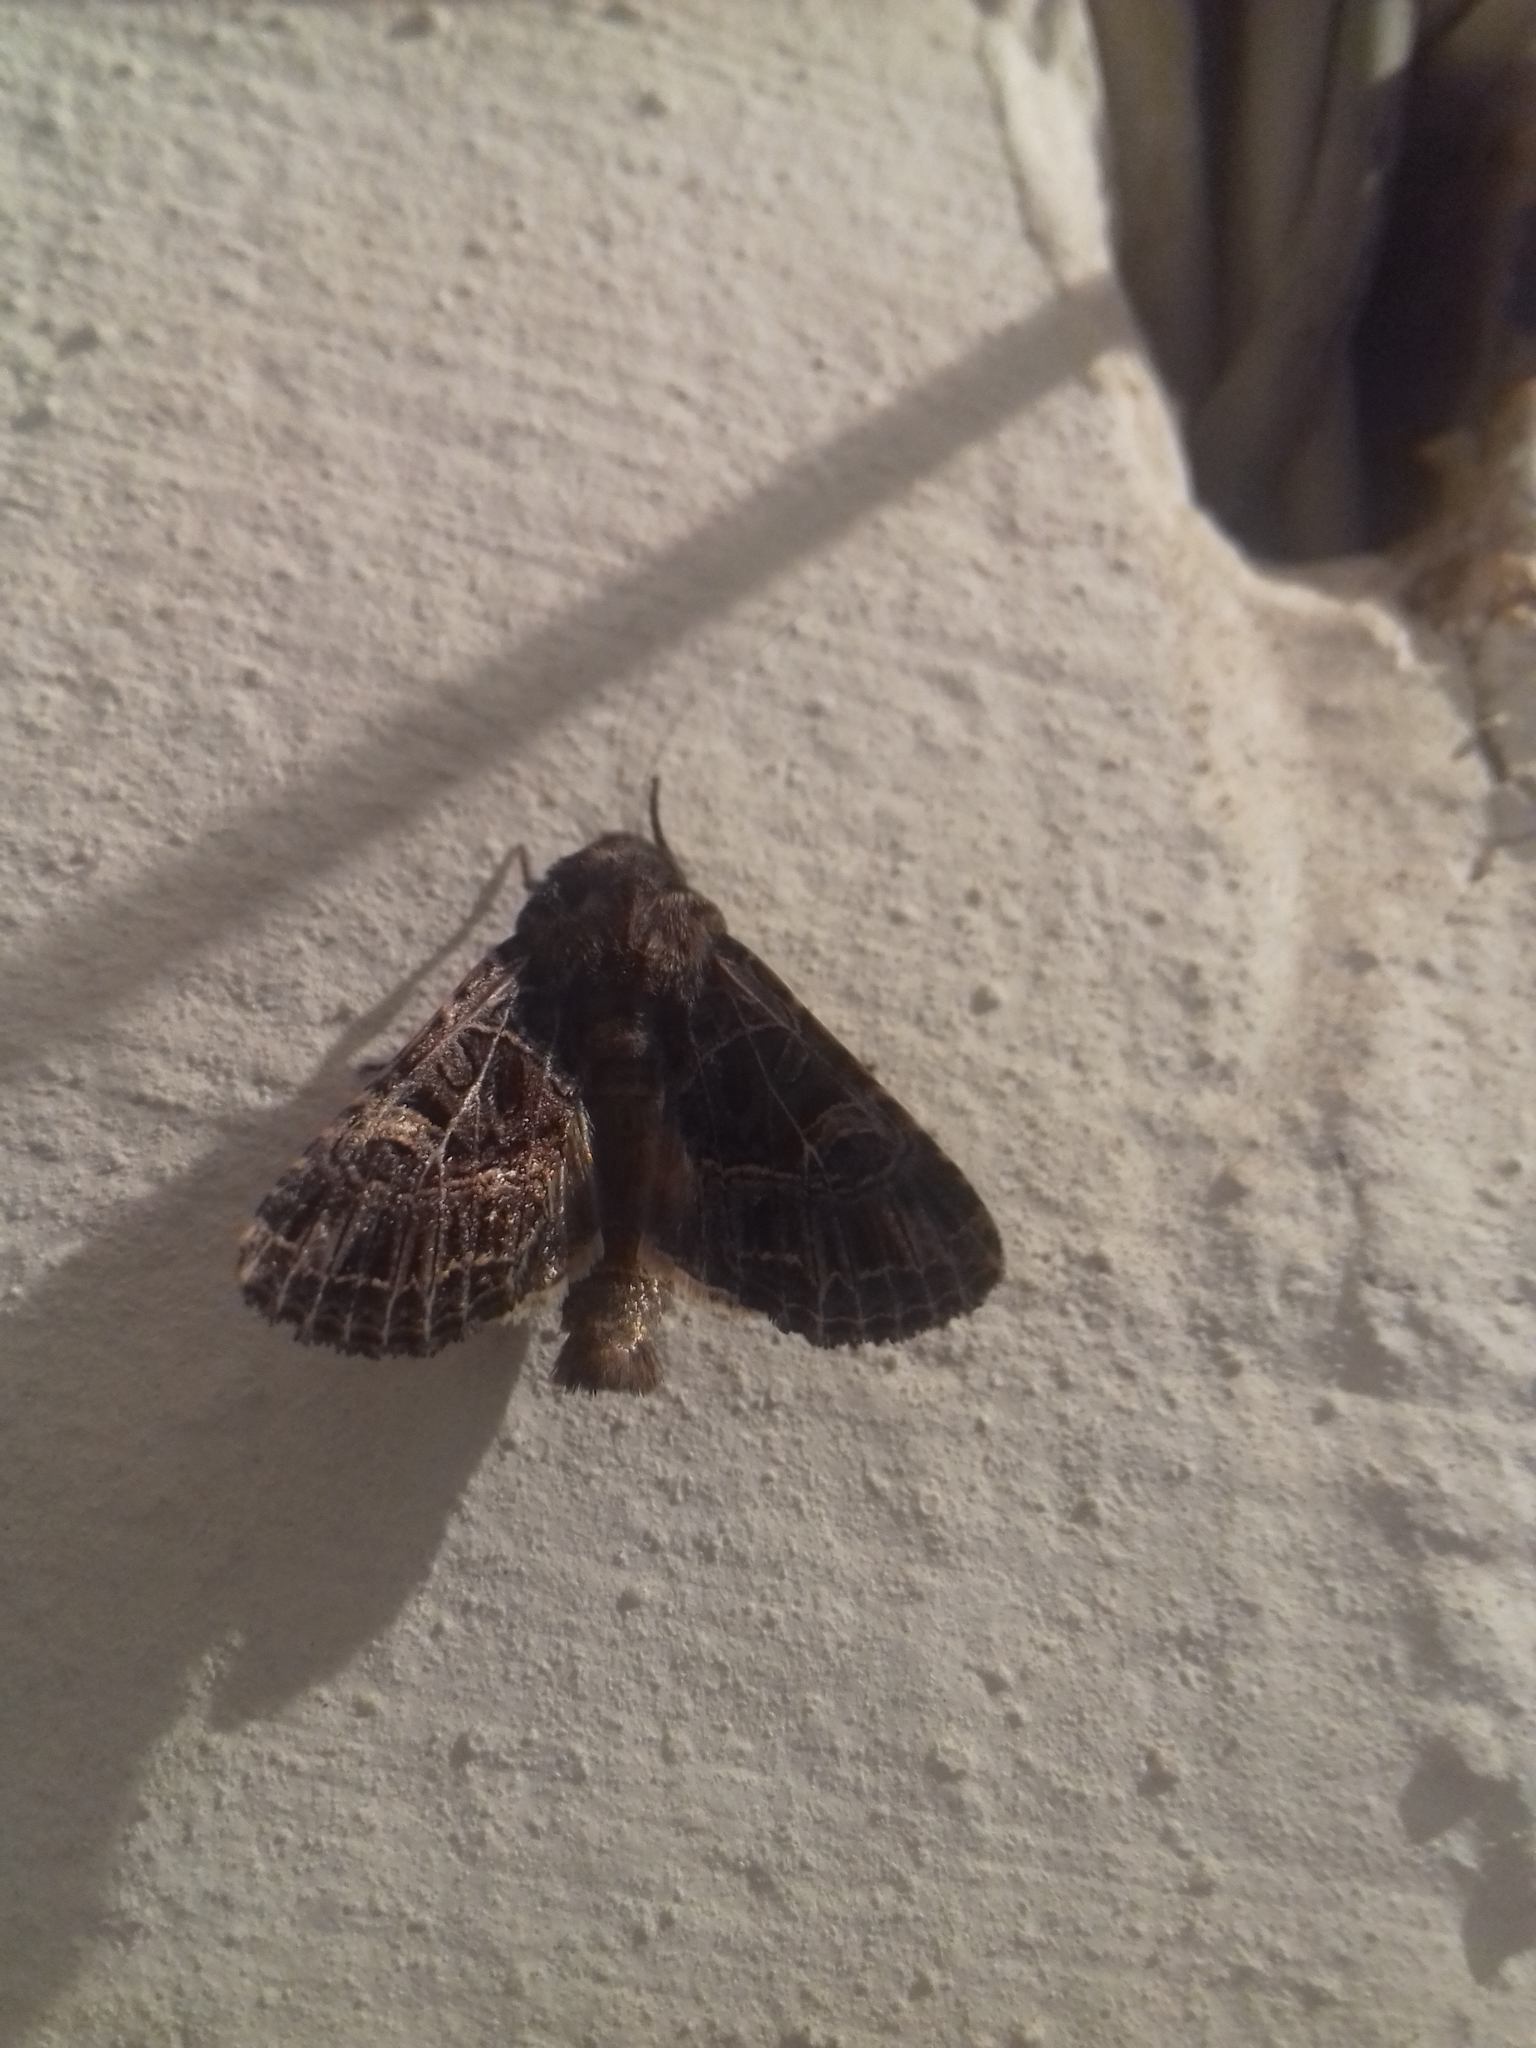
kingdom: Animalia
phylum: Arthropoda
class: Insecta
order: Lepidoptera
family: Noctuidae
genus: Sideridis
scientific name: Sideridis reticulata
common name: Bordered gothic
